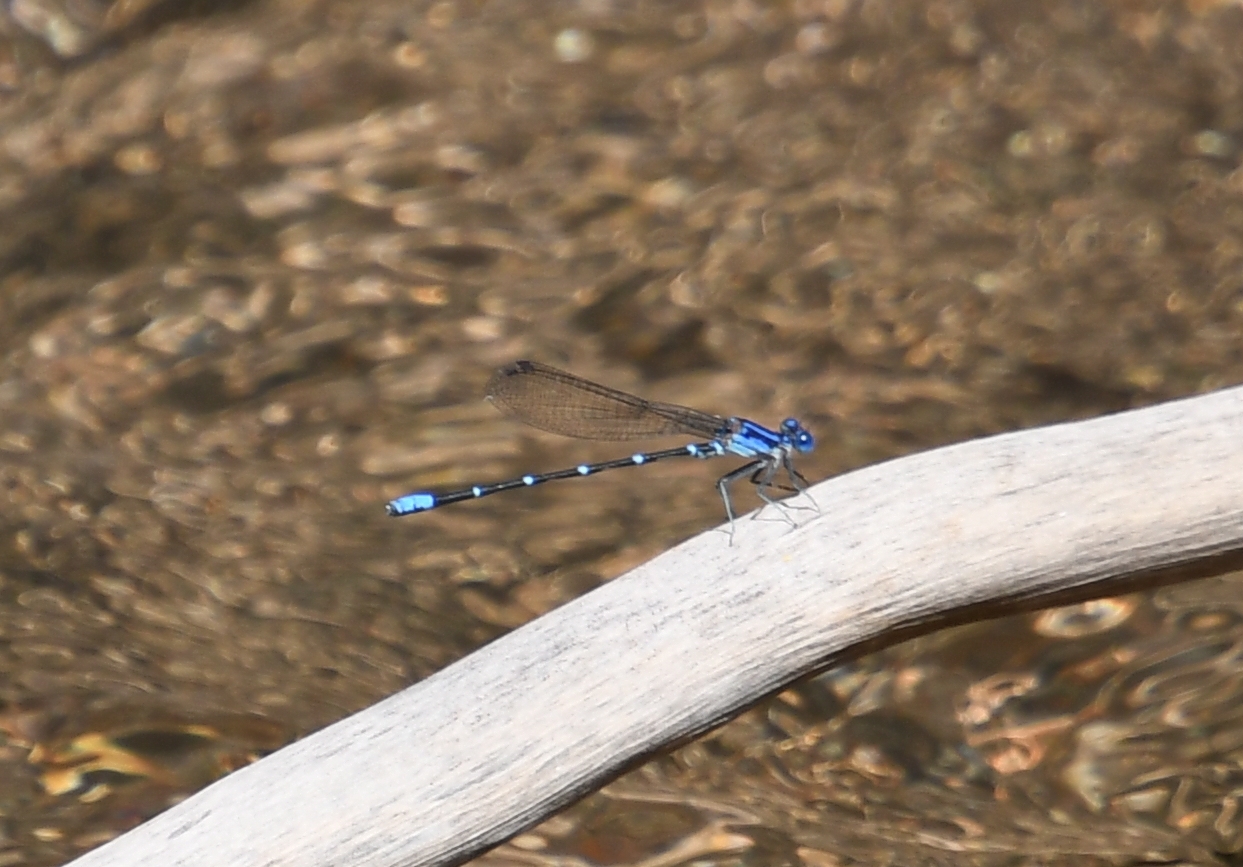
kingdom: Animalia
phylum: Arthropoda
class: Insecta
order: Odonata
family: Coenagrionidae
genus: Argia
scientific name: Argia sedula
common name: Blue-ringed dancer
